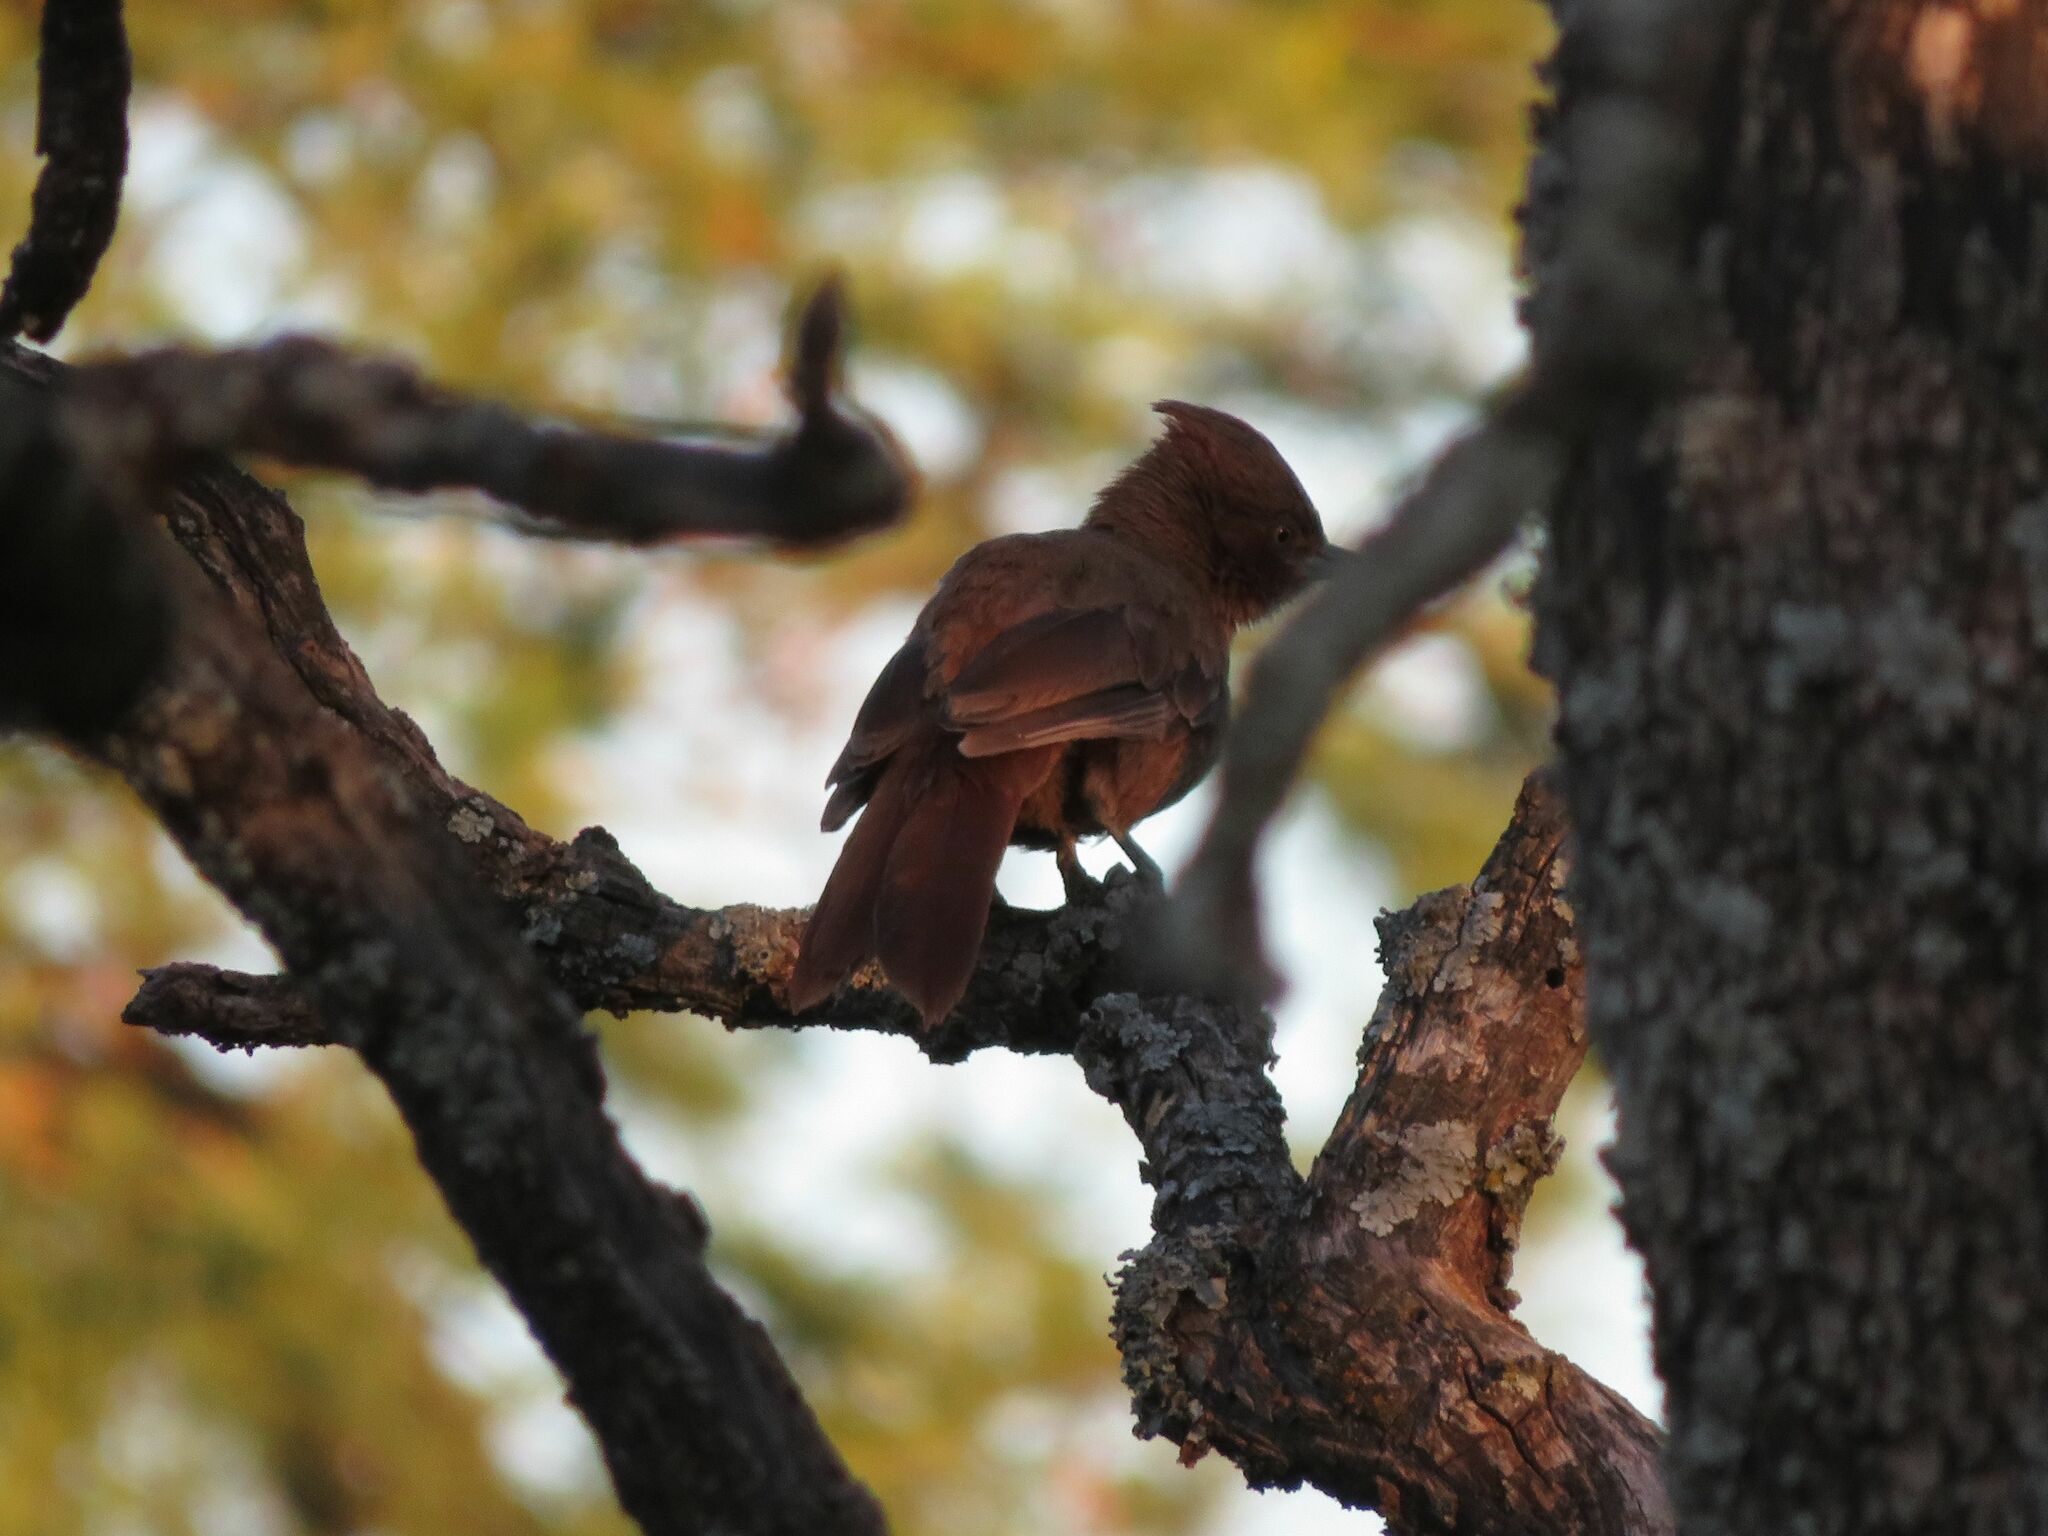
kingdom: Animalia
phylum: Chordata
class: Aves
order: Passeriformes
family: Furnariidae
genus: Pseudoseisura
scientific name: Pseudoseisura lophotes
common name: Brown cacholote
